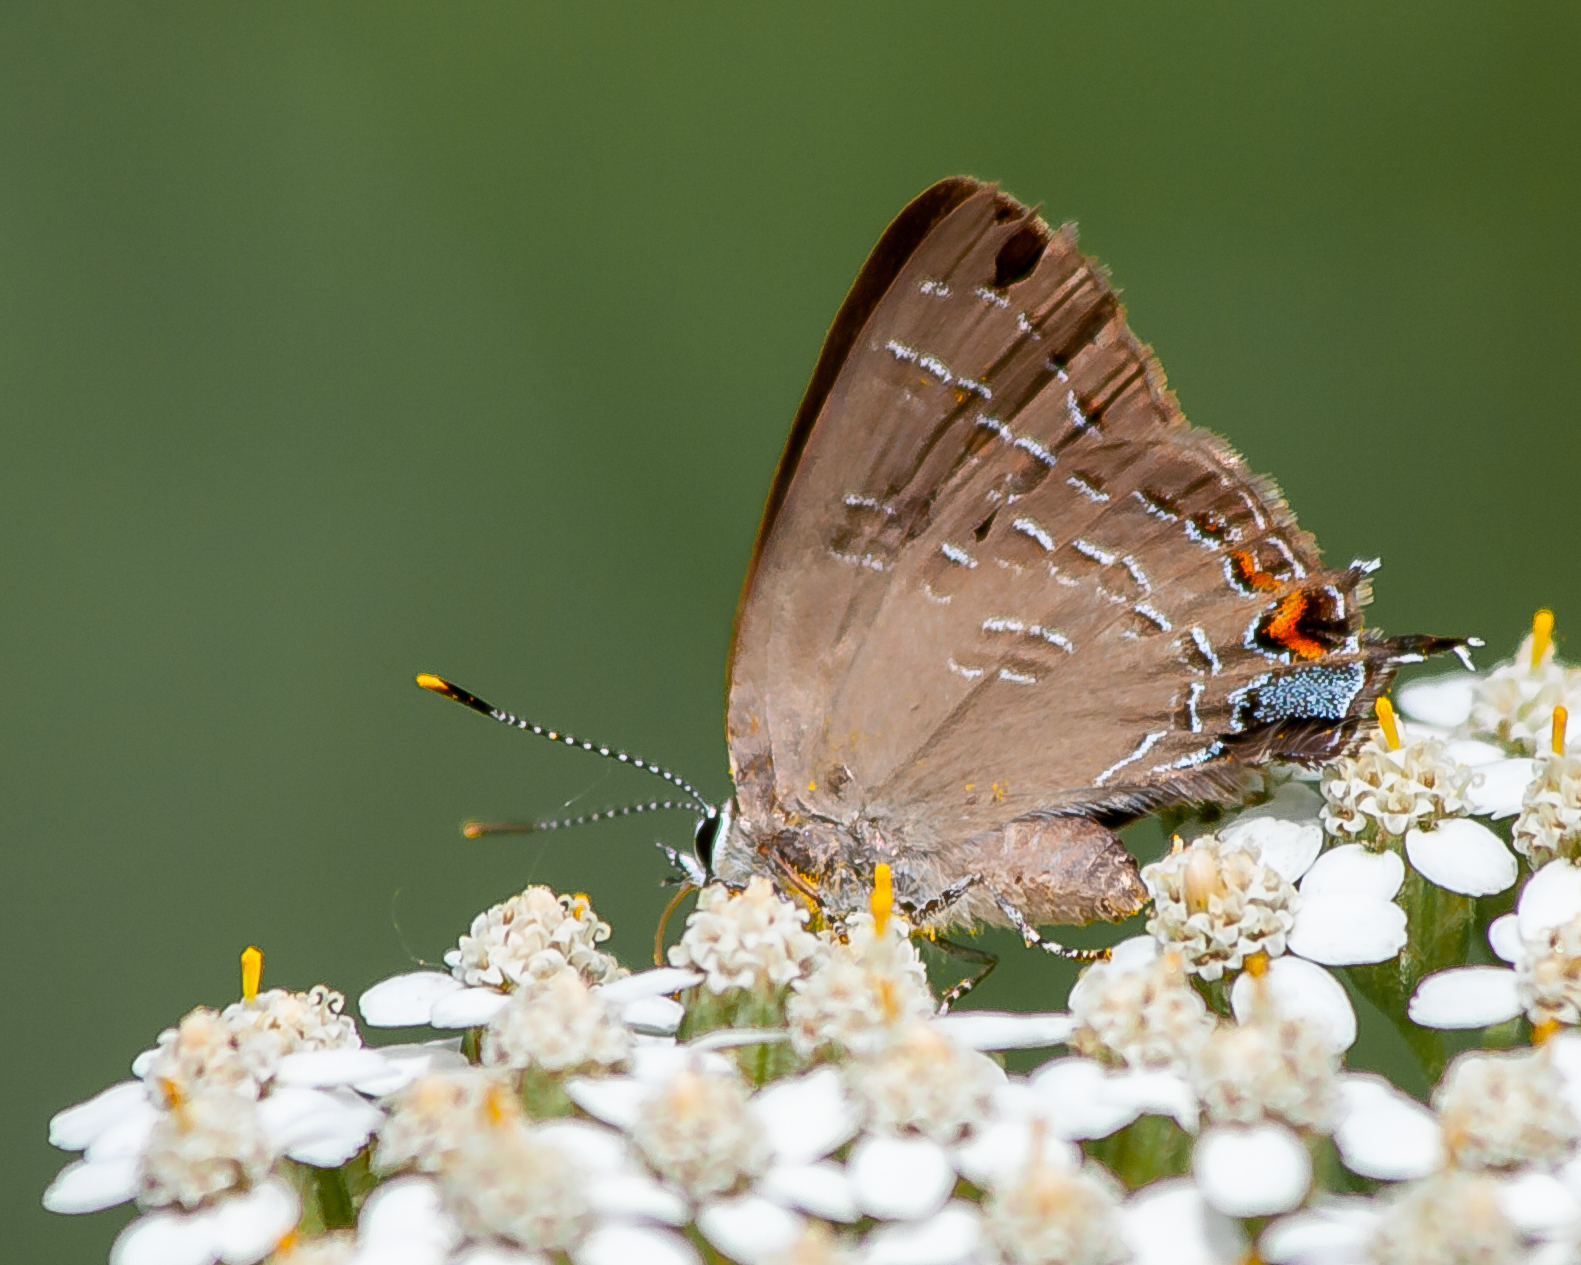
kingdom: Animalia
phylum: Arthropoda
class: Insecta
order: Lepidoptera
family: Lycaenidae
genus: Satyrium
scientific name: Satyrium calanus
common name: Banded hairstreak
